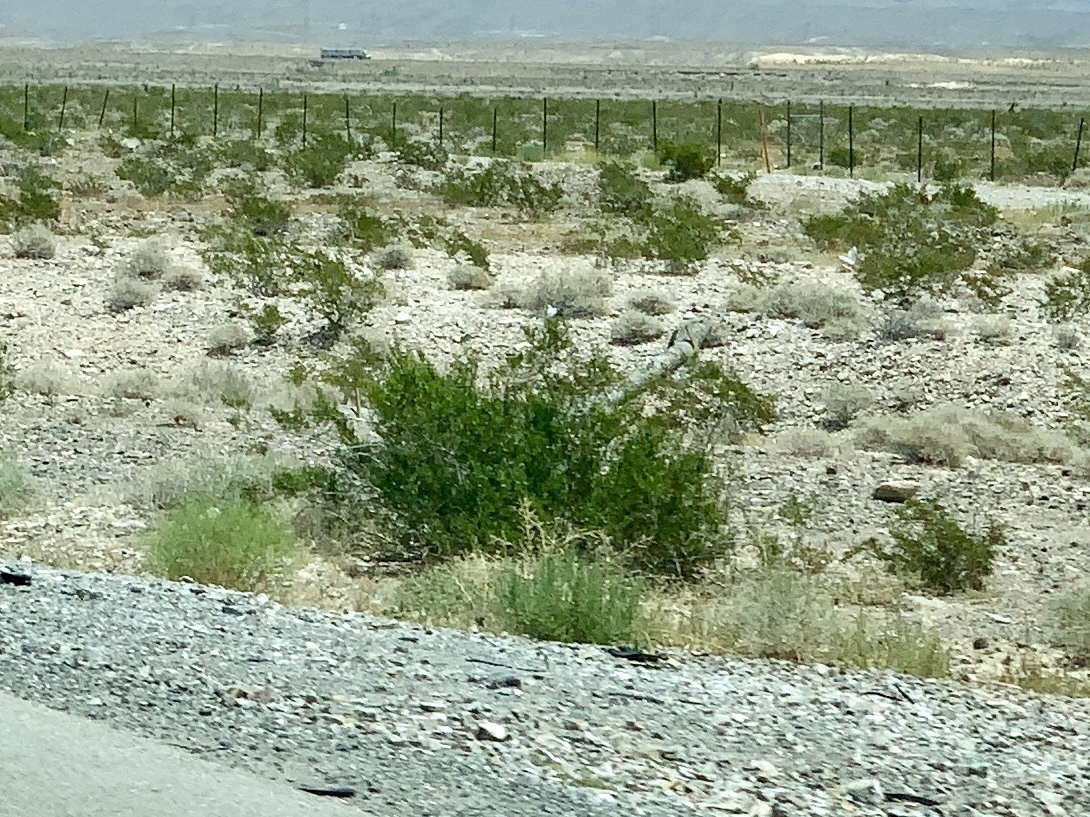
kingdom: Plantae
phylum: Tracheophyta
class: Magnoliopsida
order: Zygophyllales
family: Zygophyllaceae
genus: Larrea
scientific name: Larrea tridentata
